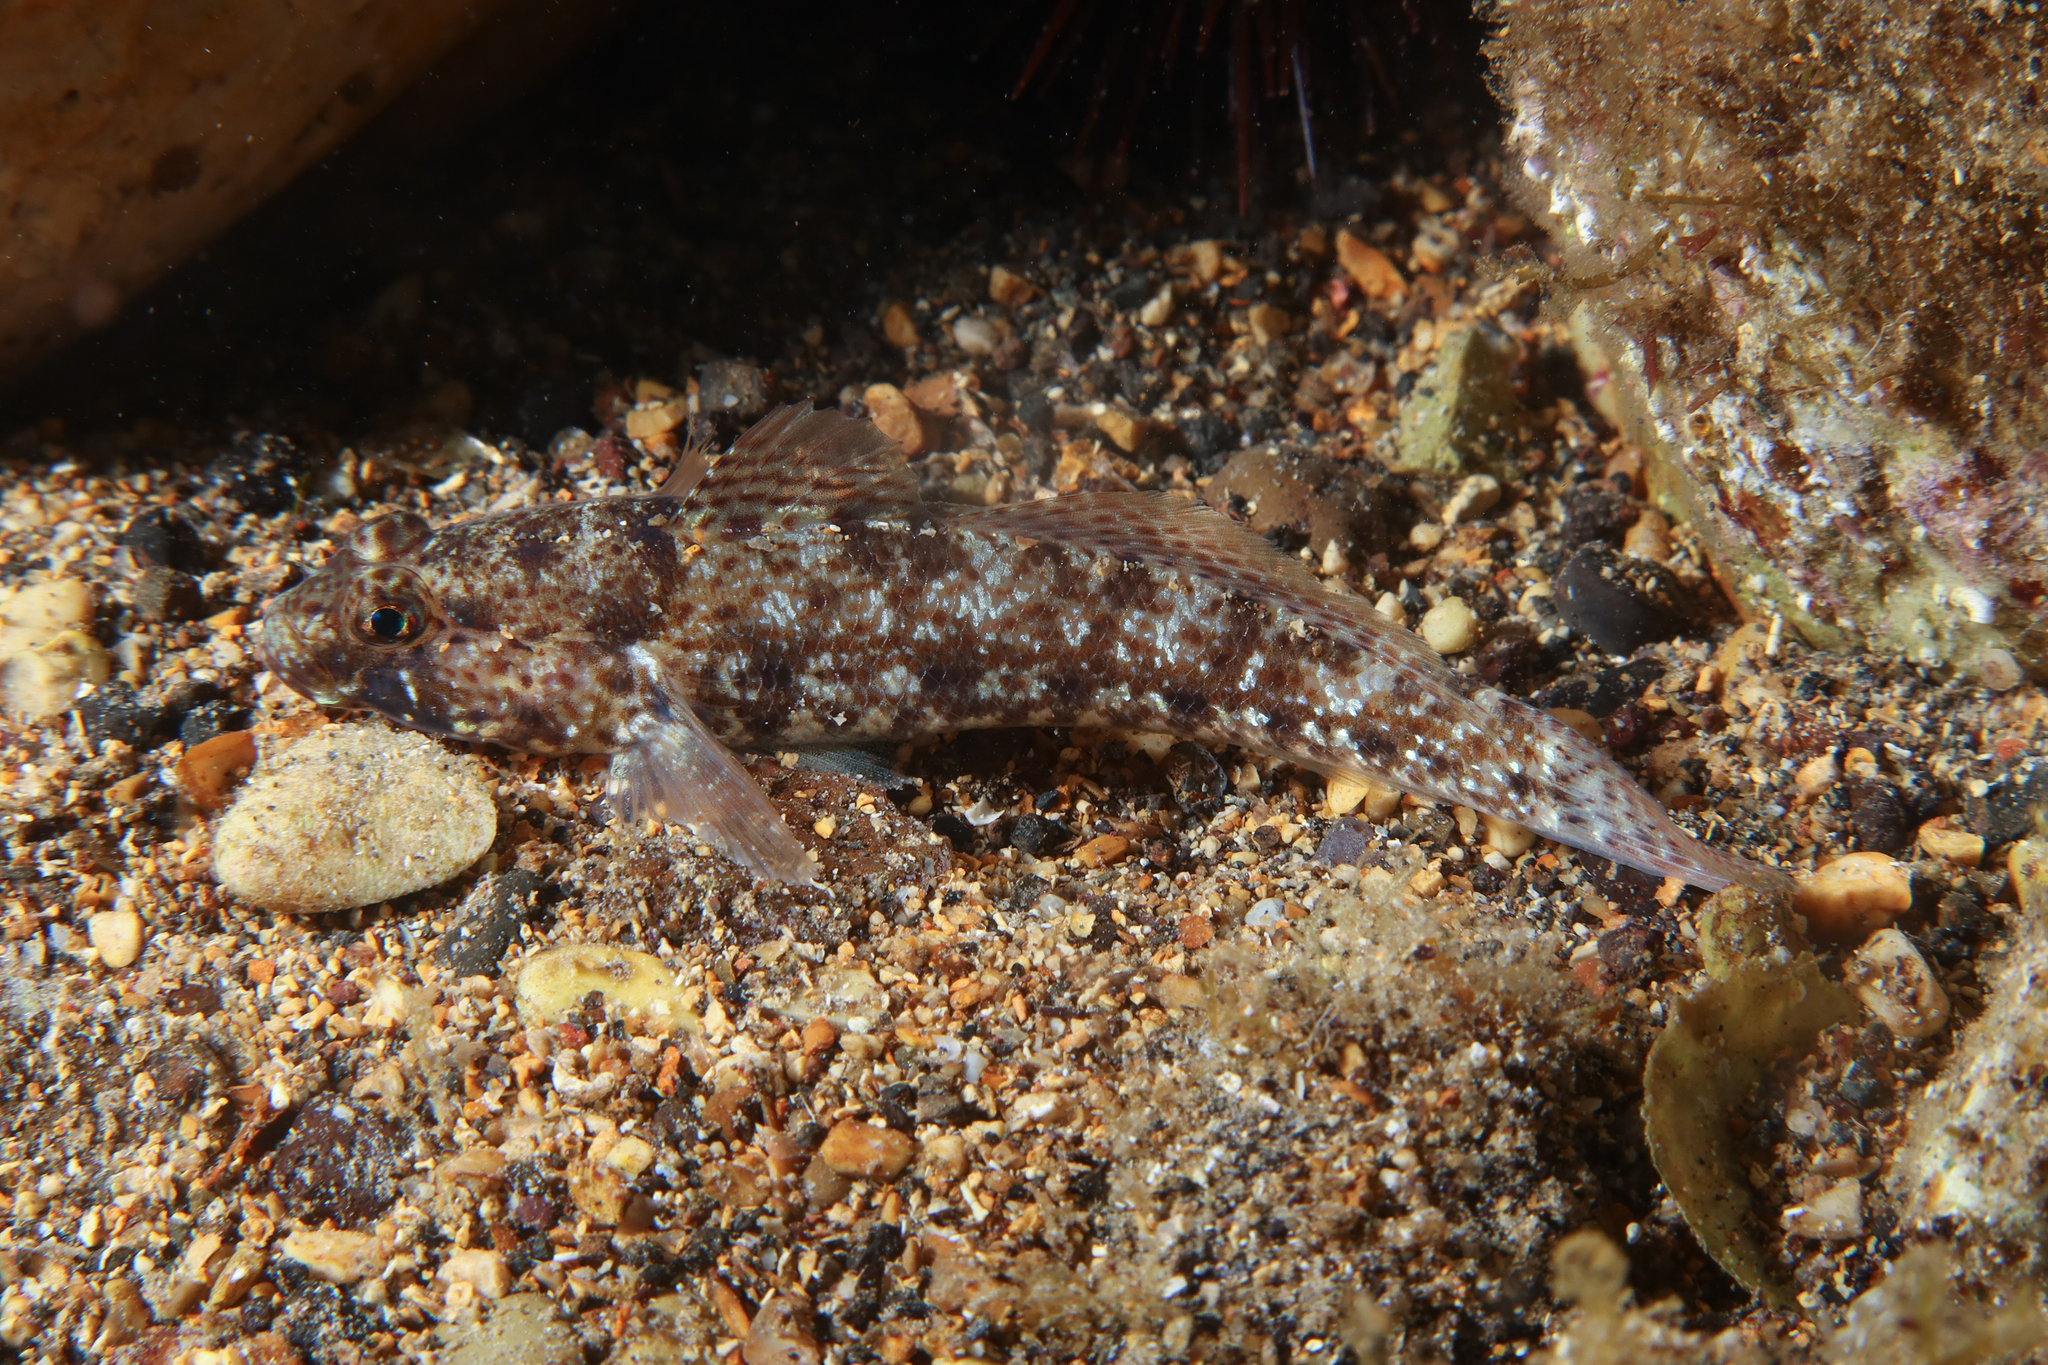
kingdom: Animalia
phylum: Chordata
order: Perciformes
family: Gobiidae
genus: Gobius
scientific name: Gobius incognitus
